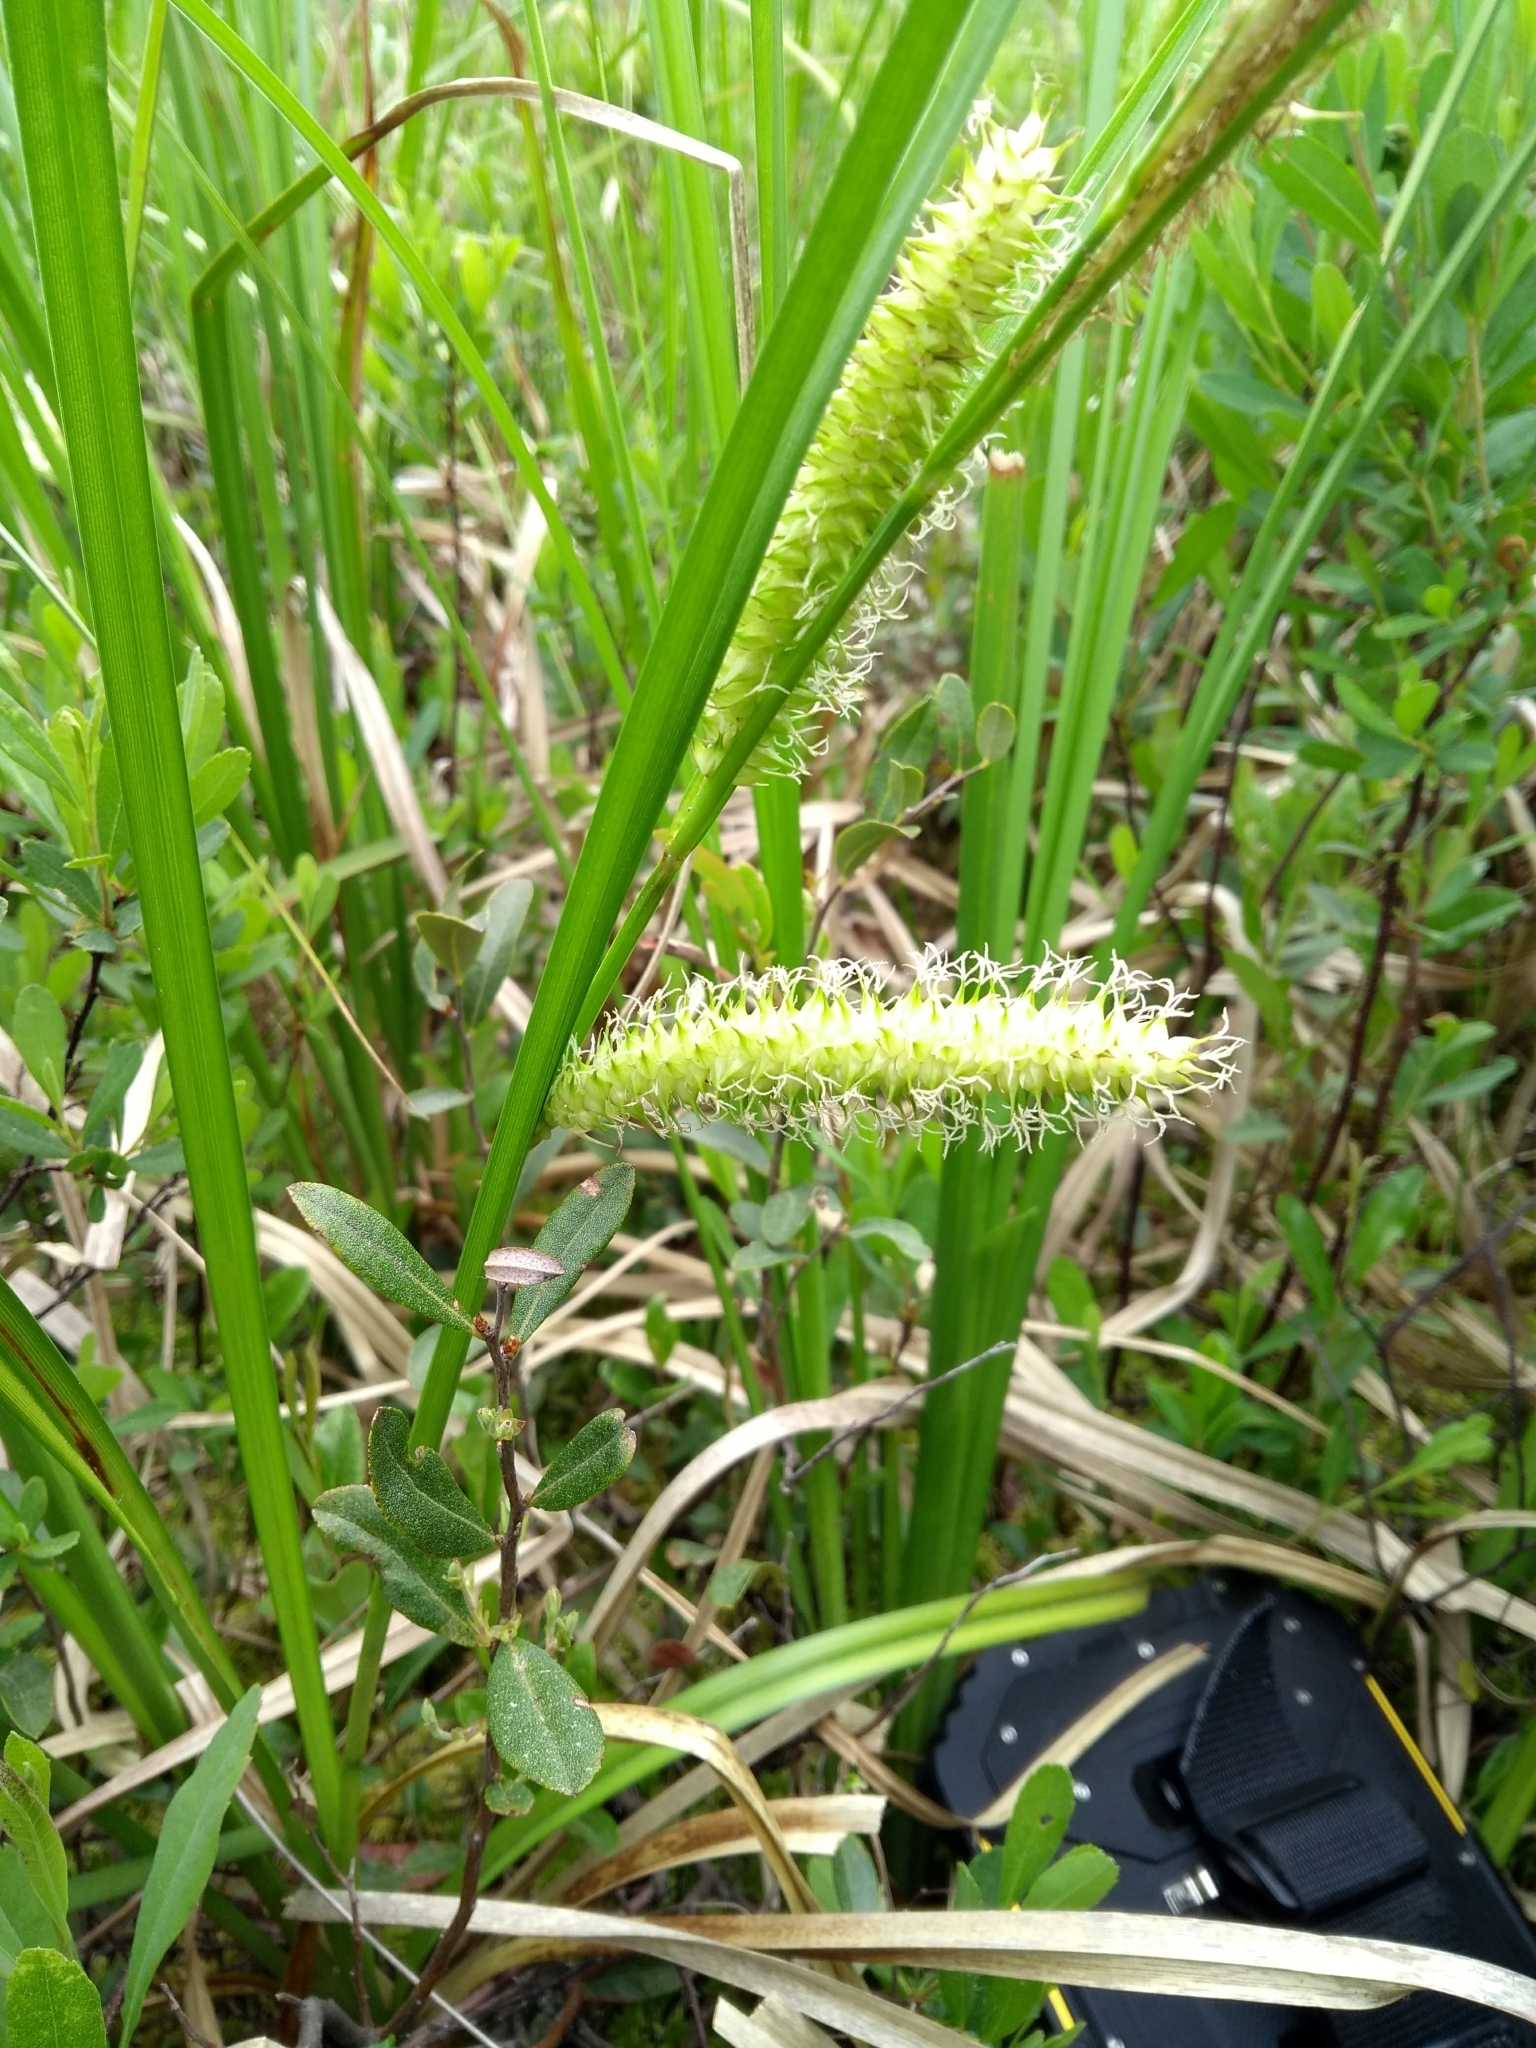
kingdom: Plantae
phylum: Tracheophyta
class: Liliopsida
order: Poales
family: Cyperaceae
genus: Carex
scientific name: Carex utriculata
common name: Beaked sedge
